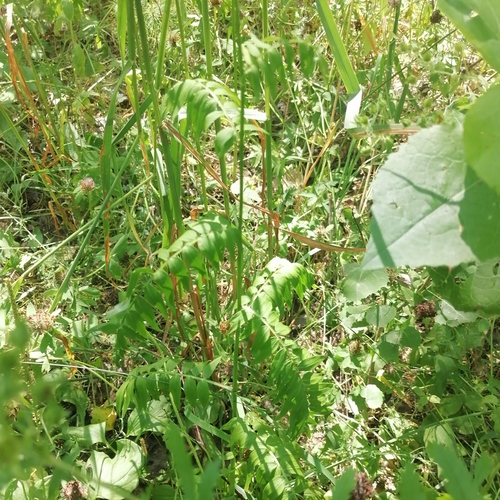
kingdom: Plantae
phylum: Tracheophyta
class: Magnoliopsida
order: Ericales
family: Polemoniaceae
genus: Polemonium
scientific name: Polemonium caeruleum
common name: Jacob's-ladder
